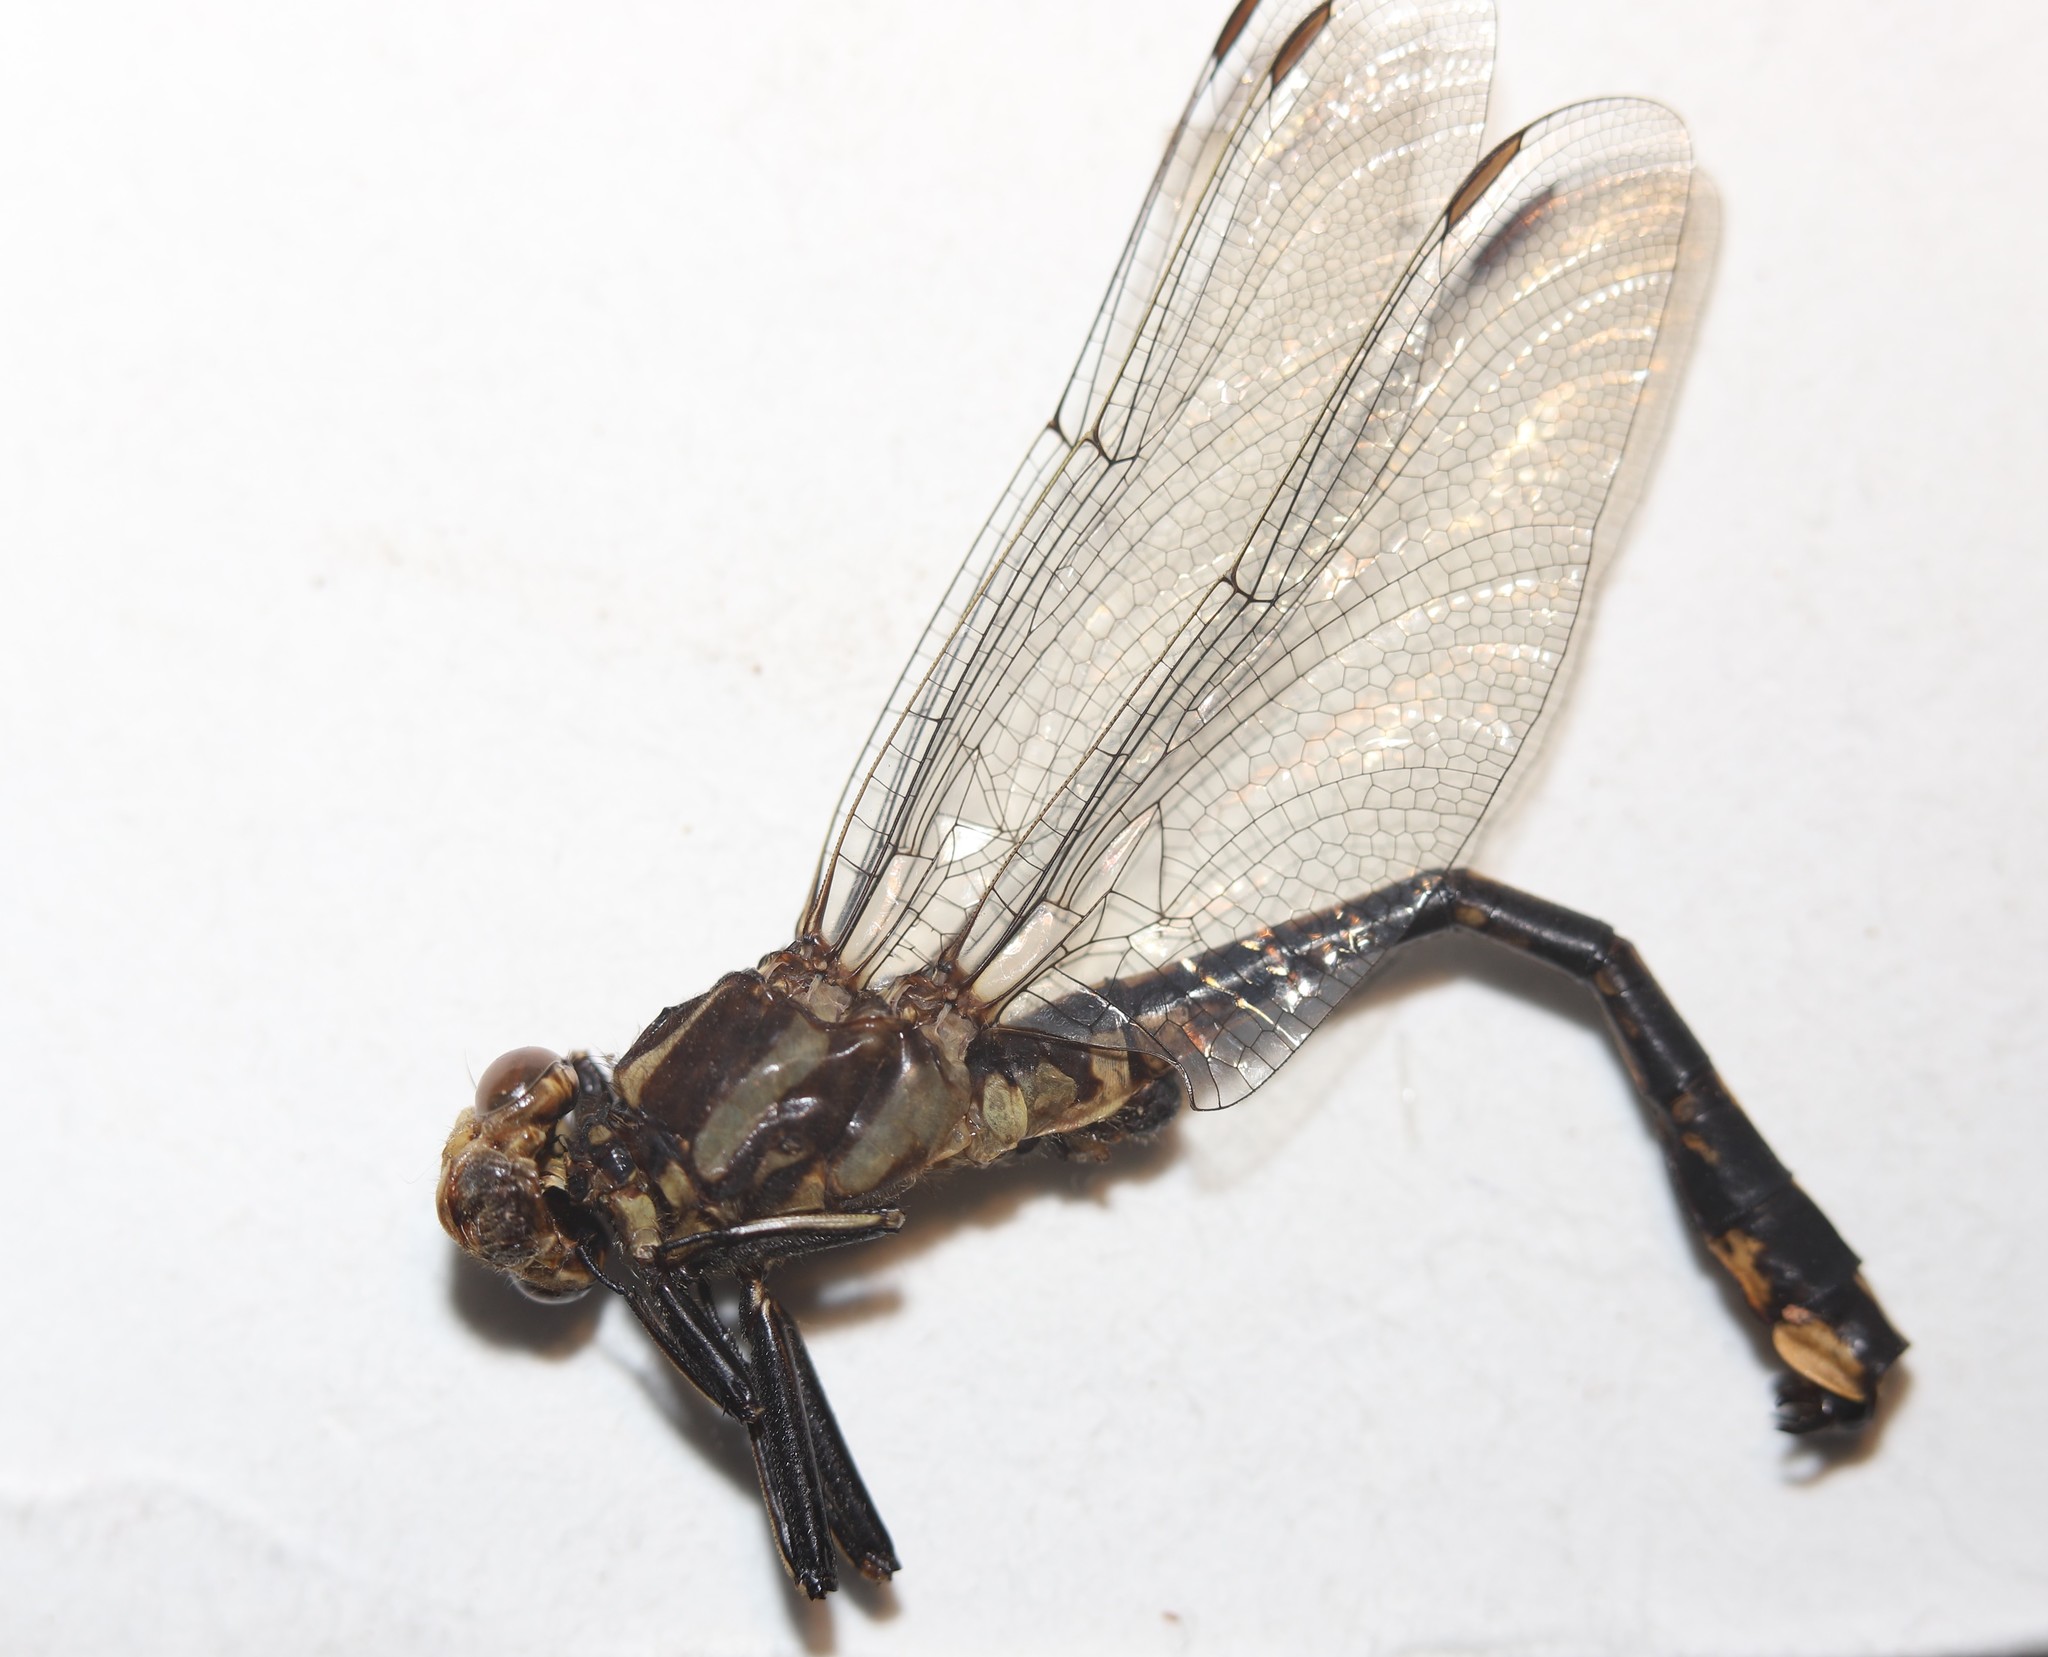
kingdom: Animalia
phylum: Arthropoda
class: Insecta
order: Odonata
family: Gomphidae
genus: Phanogomphus
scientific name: Phanogomphus graslinellus
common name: Pronghorn clubtail
